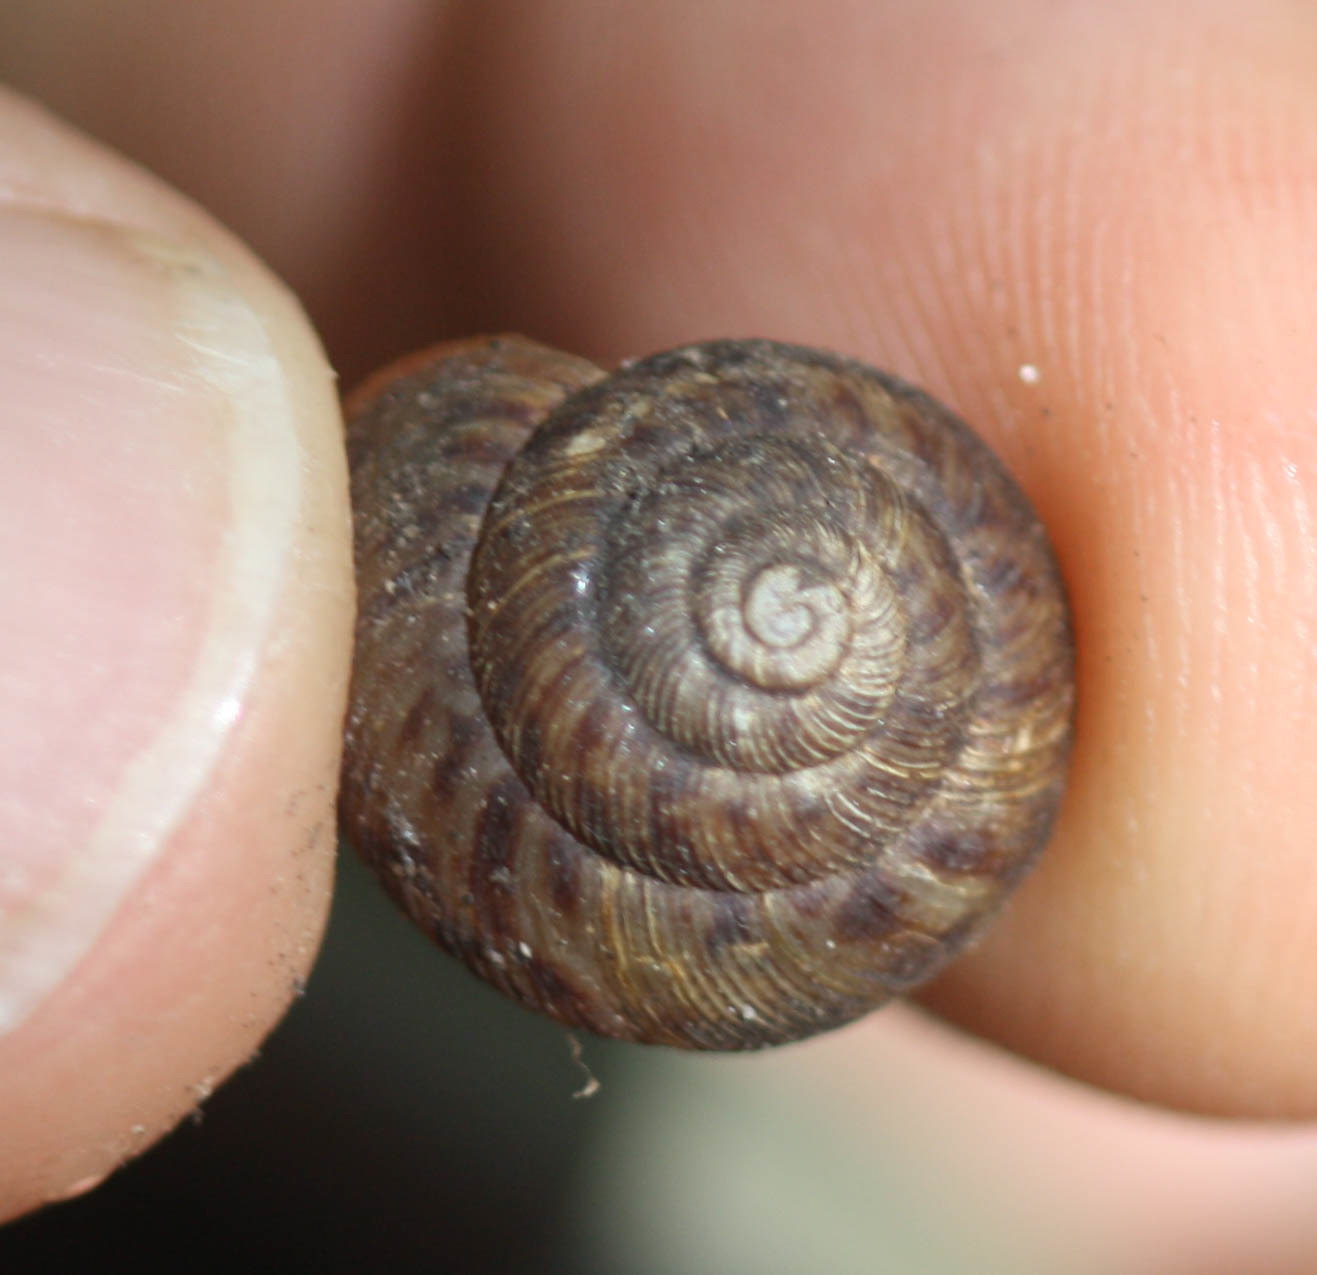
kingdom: Animalia
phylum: Mollusca
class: Gastropoda
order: Stylommatophora
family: Discidae
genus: Anguispira
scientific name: Anguispira alternata
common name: Flamed tigersnail
